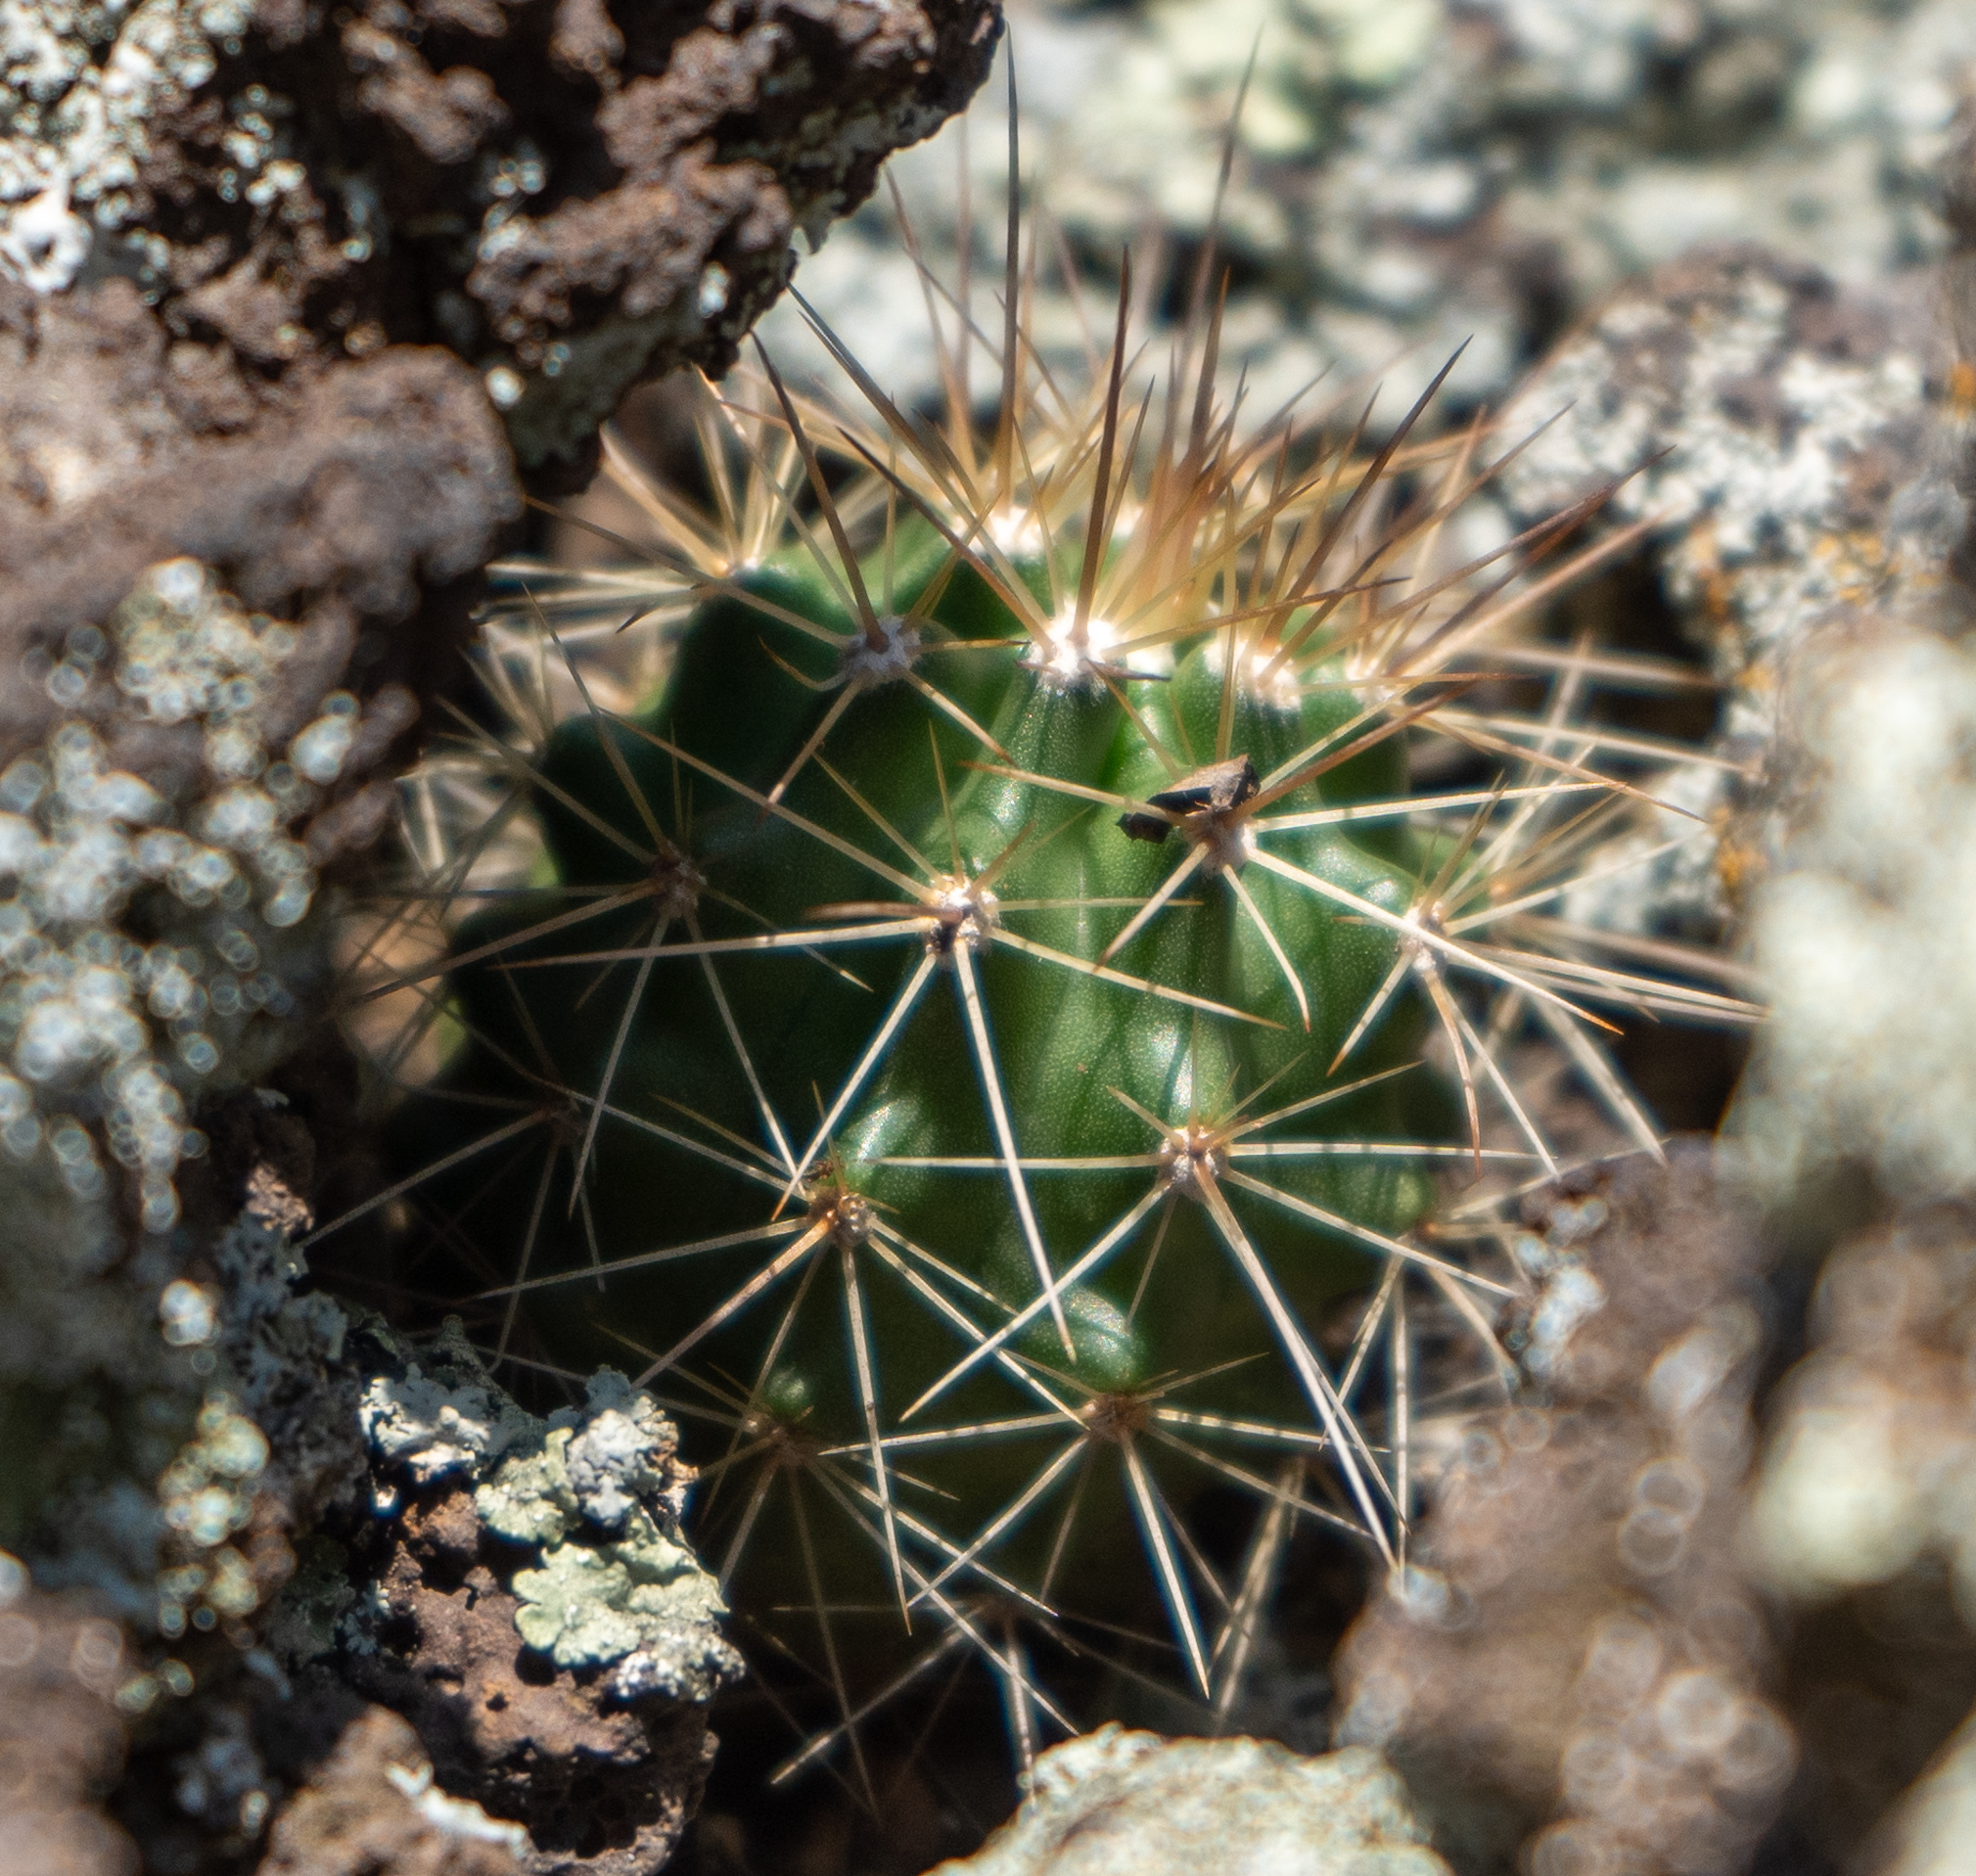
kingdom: Plantae
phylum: Tracheophyta
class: Magnoliopsida
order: Caryophyllales
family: Cactaceae
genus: Echinocereus
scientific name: Echinocereus coccineus
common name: Scarlet hedgehog cactus
